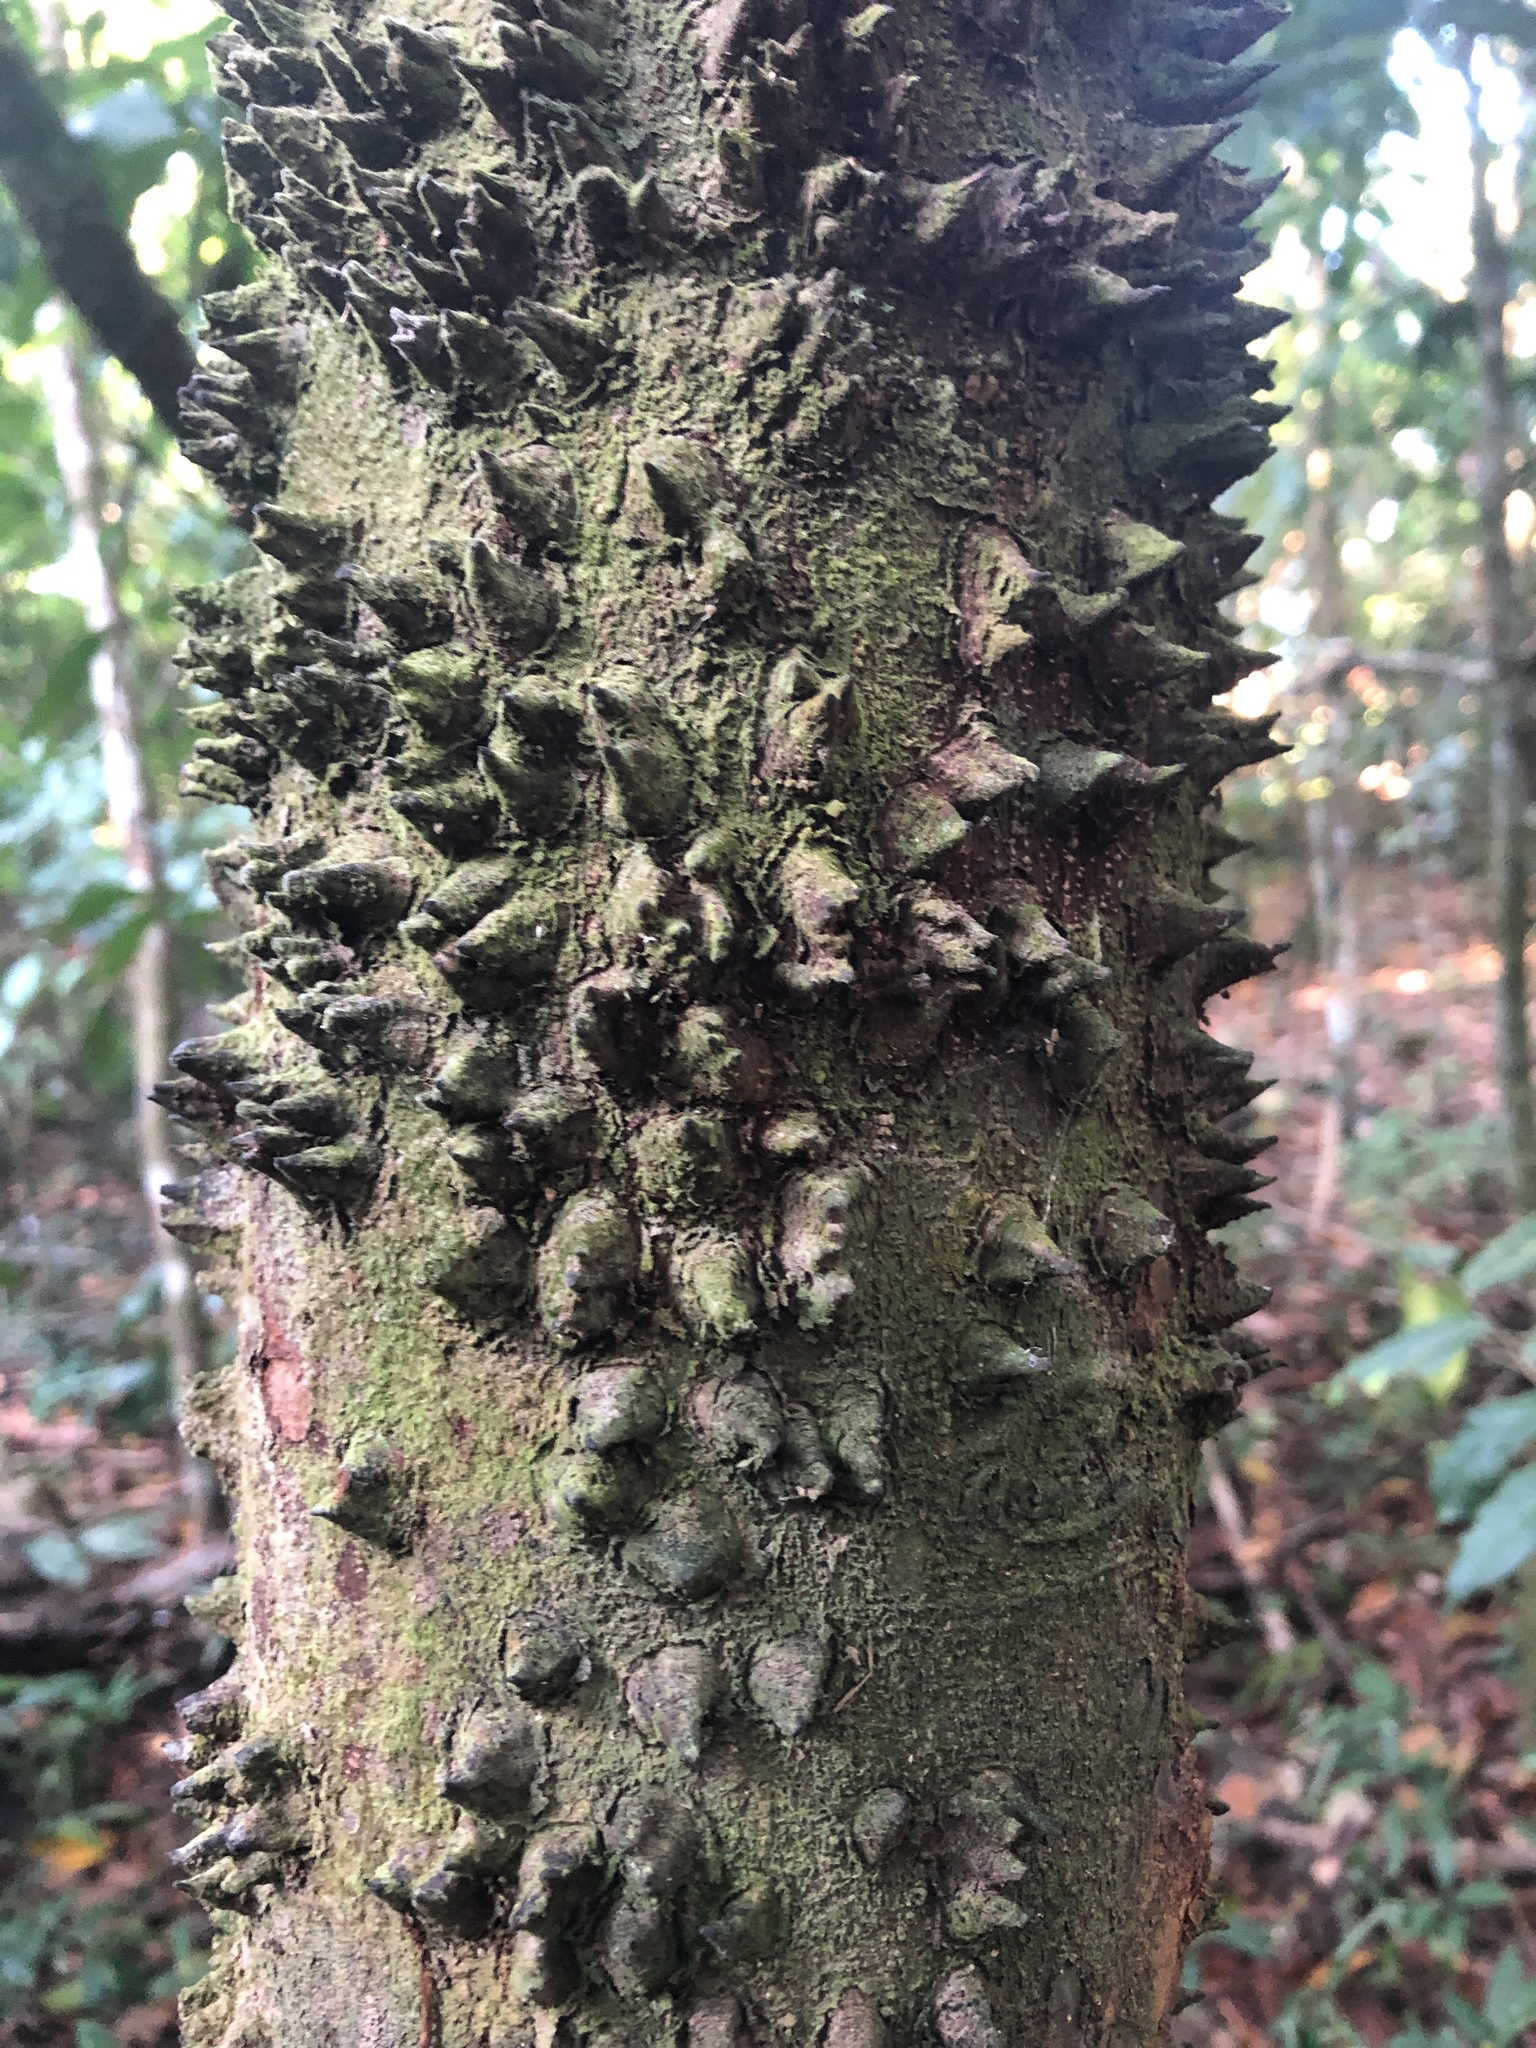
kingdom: Plantae
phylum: Tracheophyta
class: Magnoliopsida
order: Gentianales
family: Apocynaceae
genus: Lacmellea
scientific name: Lacmellea panamensis
